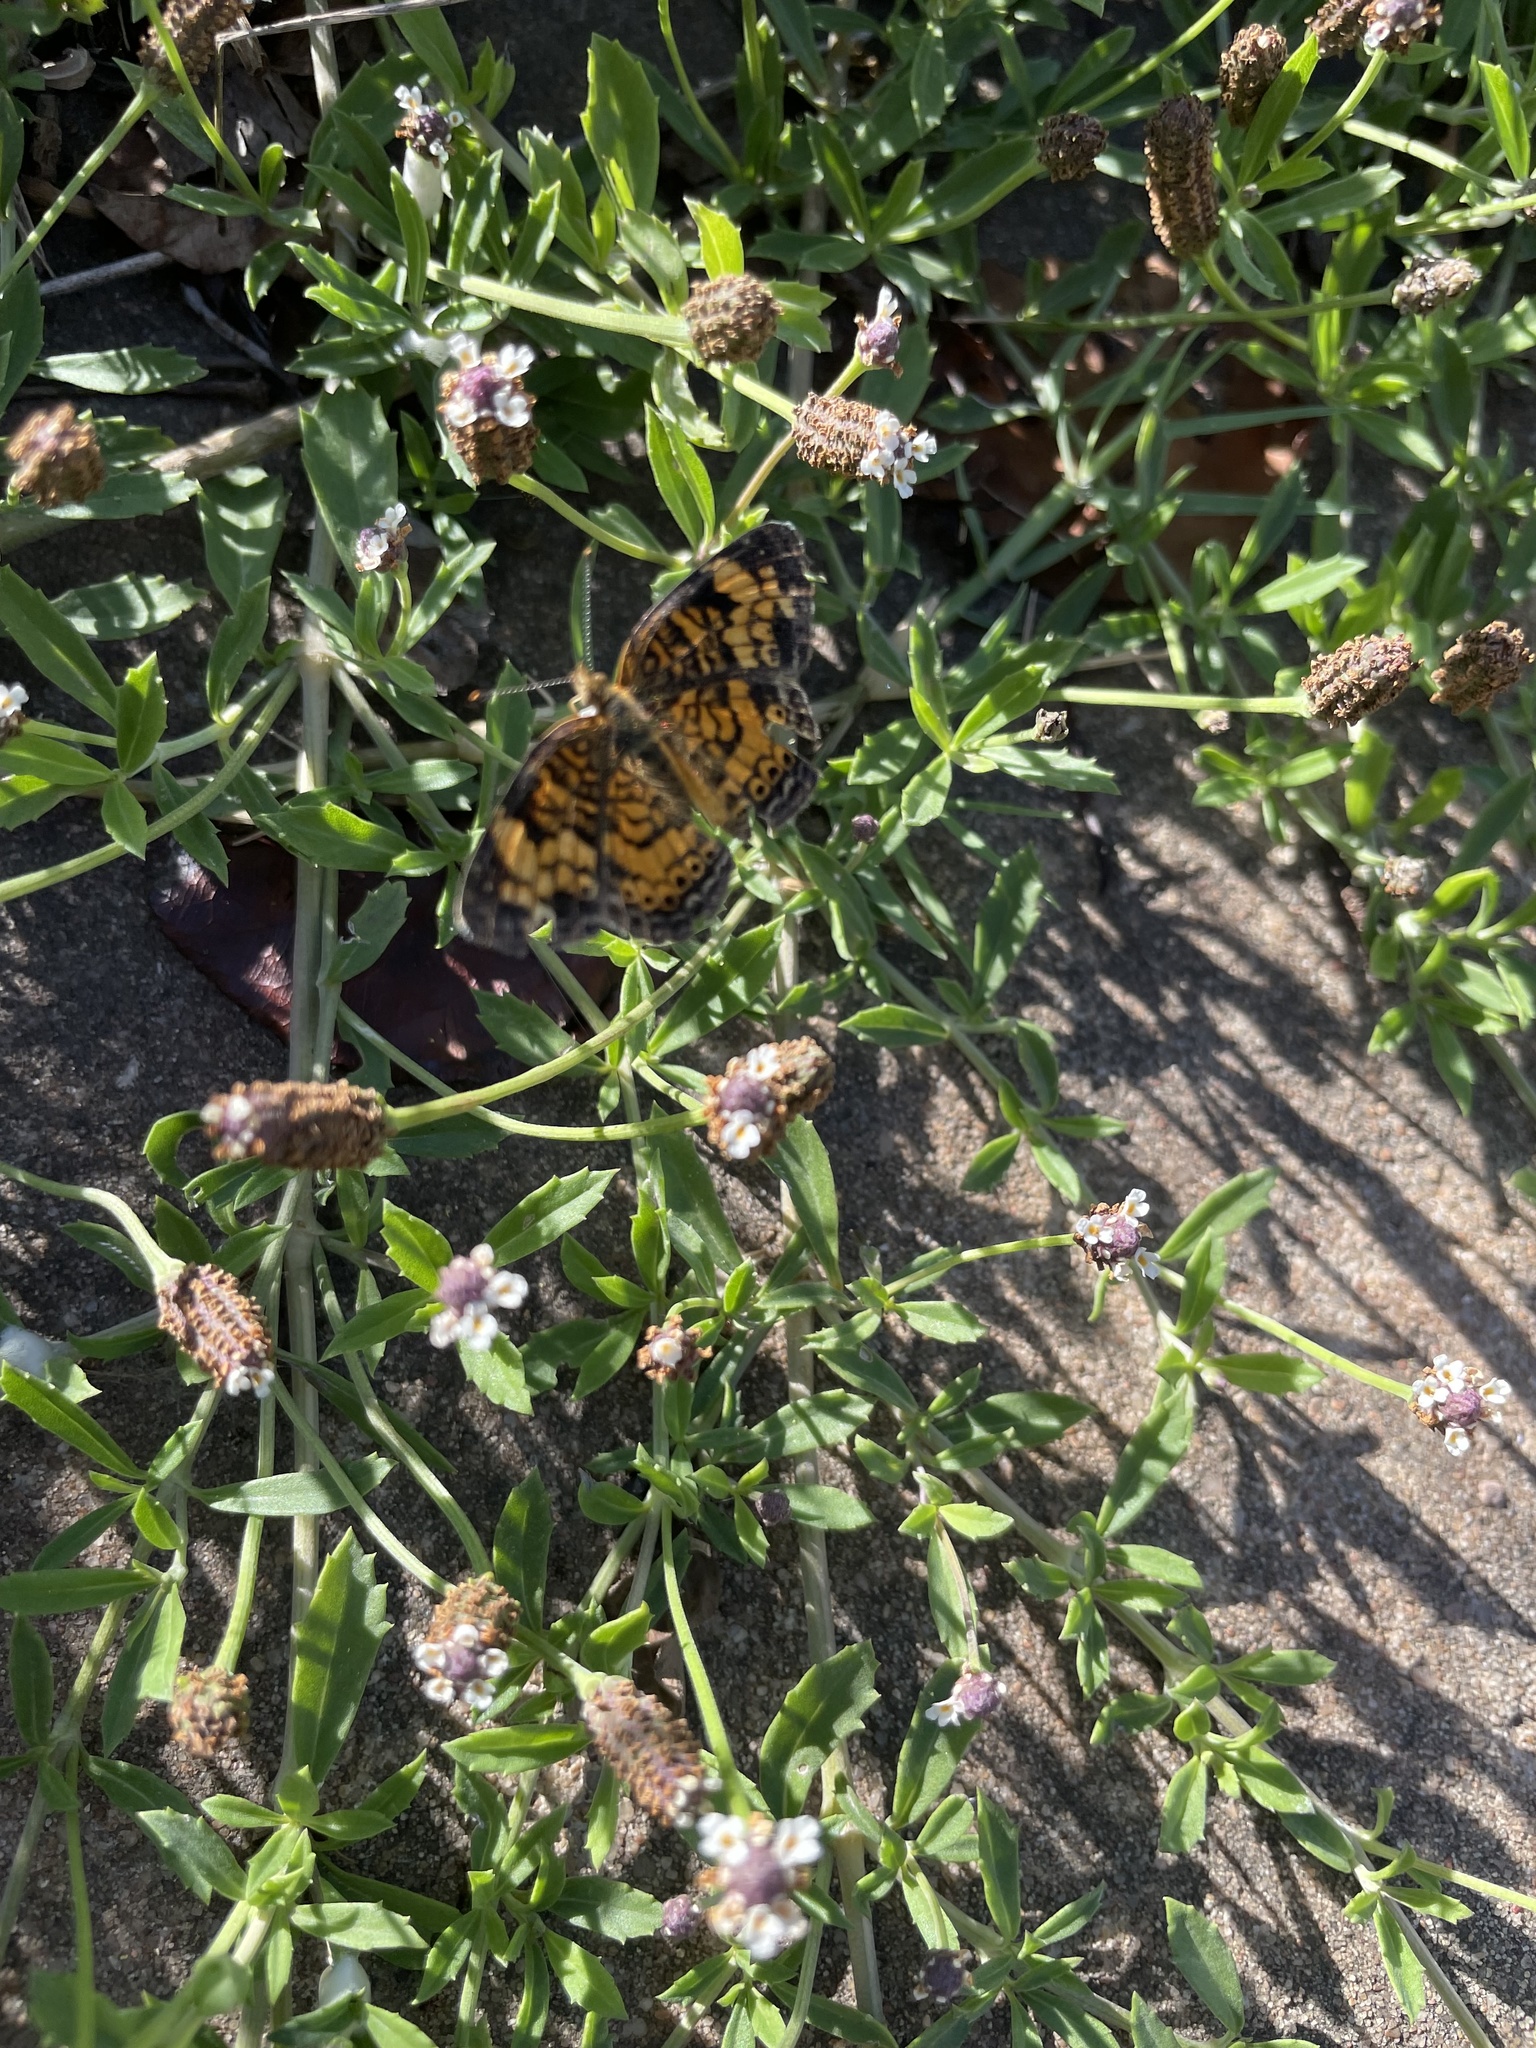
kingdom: Animalia
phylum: Arthropoda
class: Insecta
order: Lepidoptera
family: Nymphalidae
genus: Phyciodes
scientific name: Phyciodes tharos
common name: Pearl crescent
